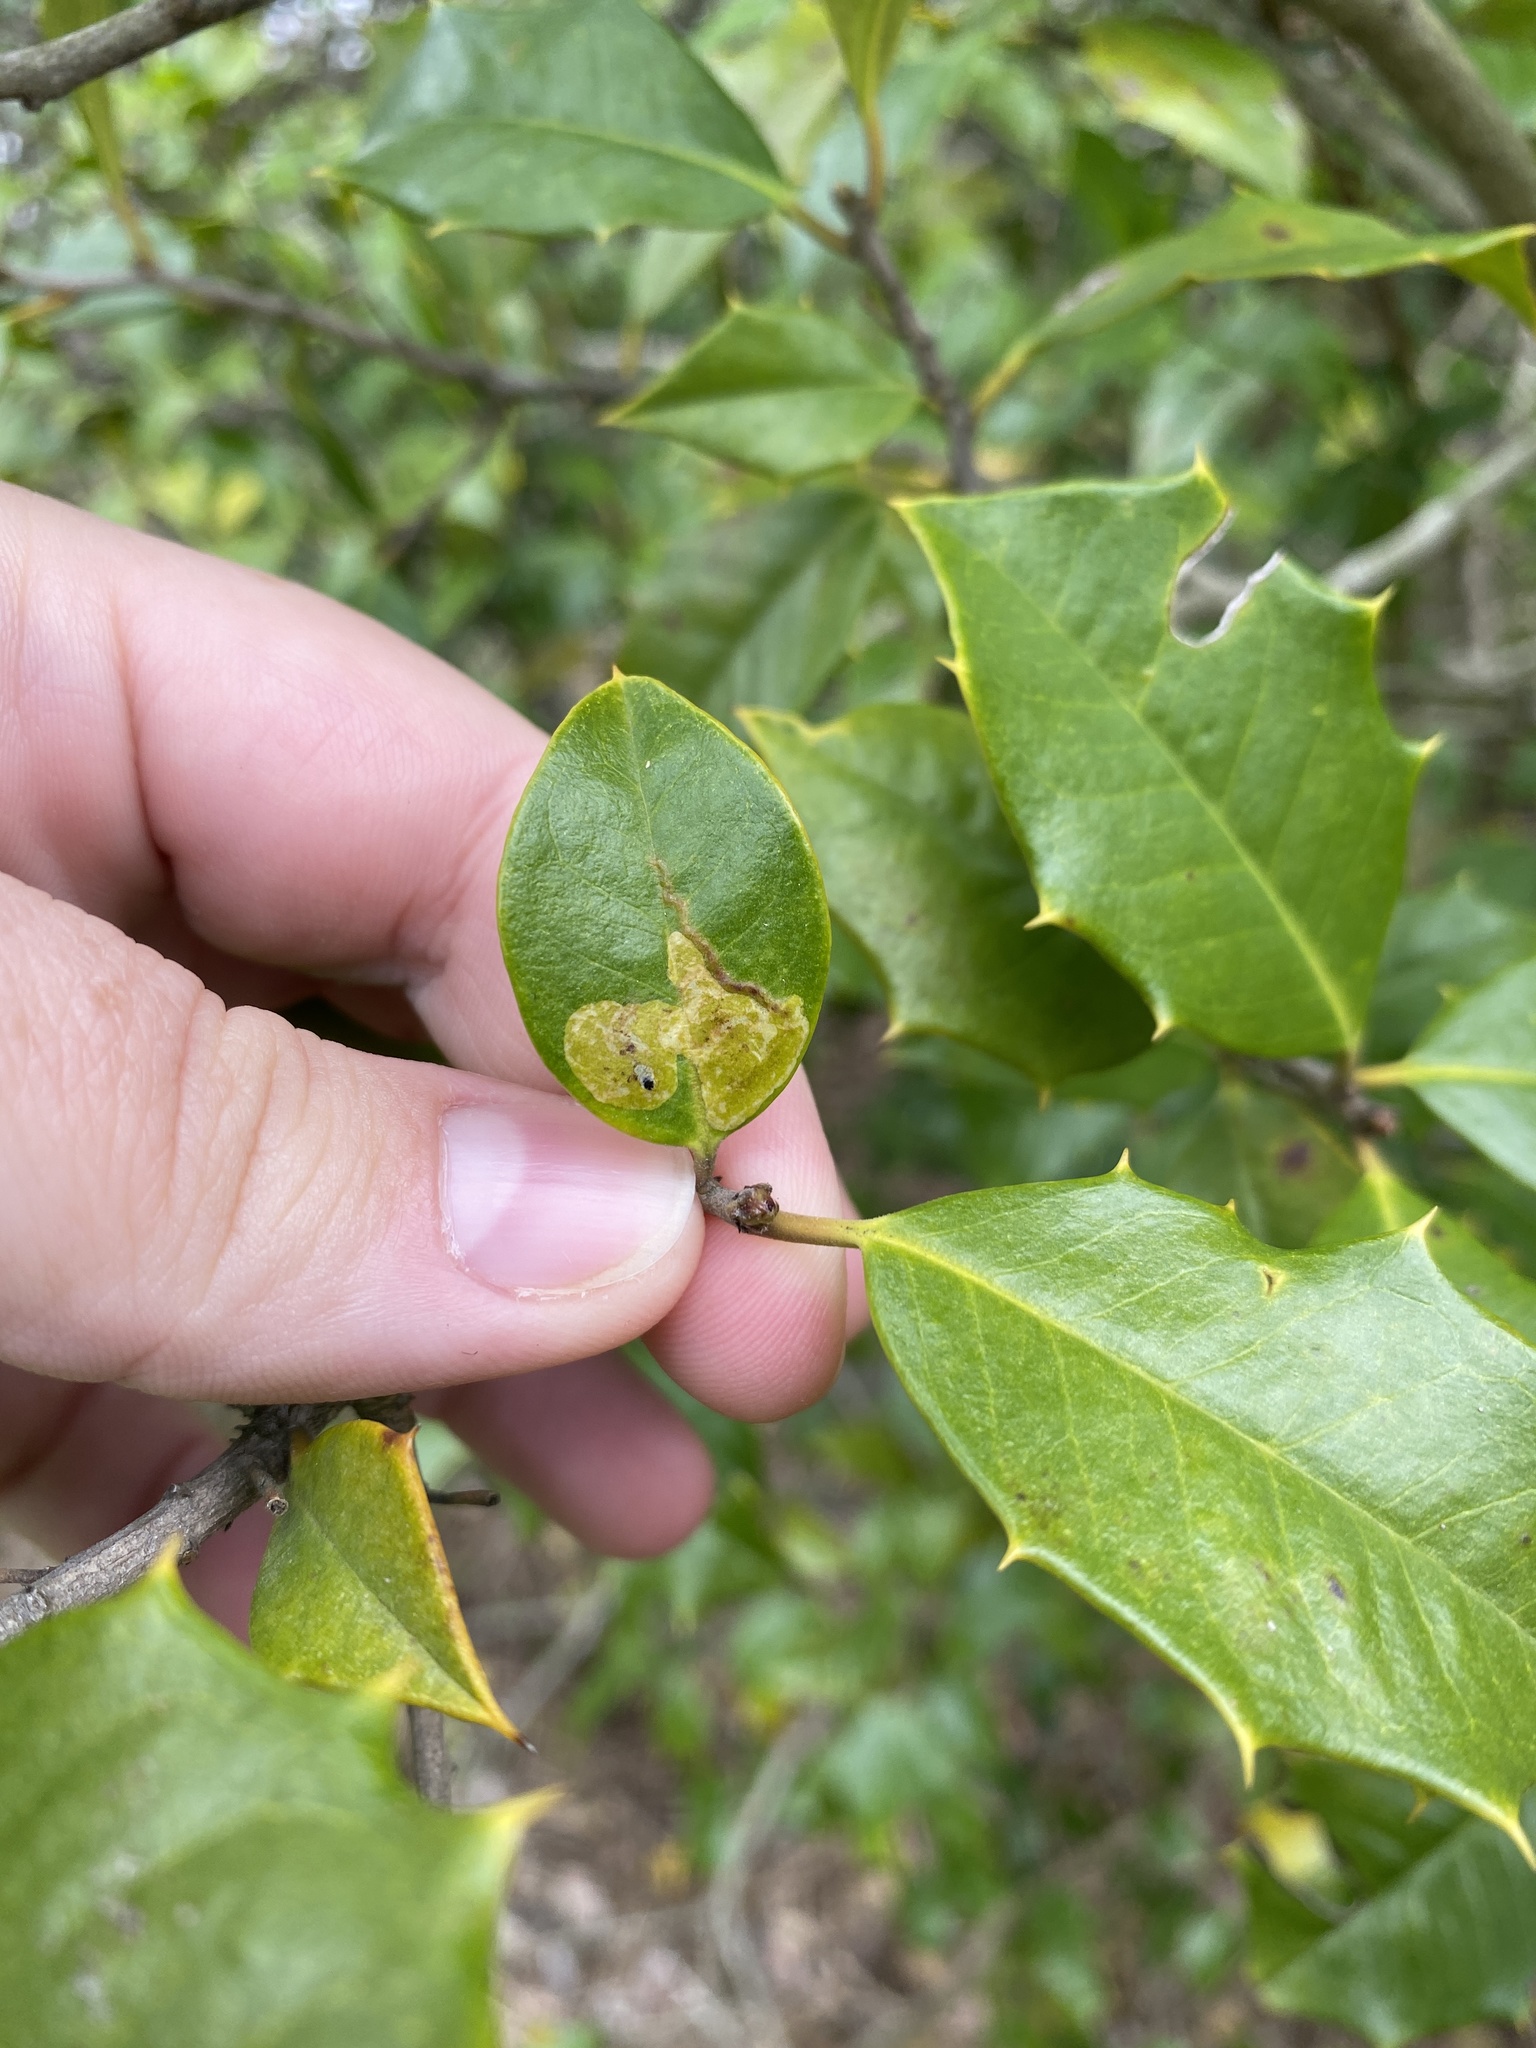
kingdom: Animalia
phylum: Arthropoda
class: Insecta
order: Diptera
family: Agromyzidae
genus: Phytomyza
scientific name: Phytomyza ilicicola
